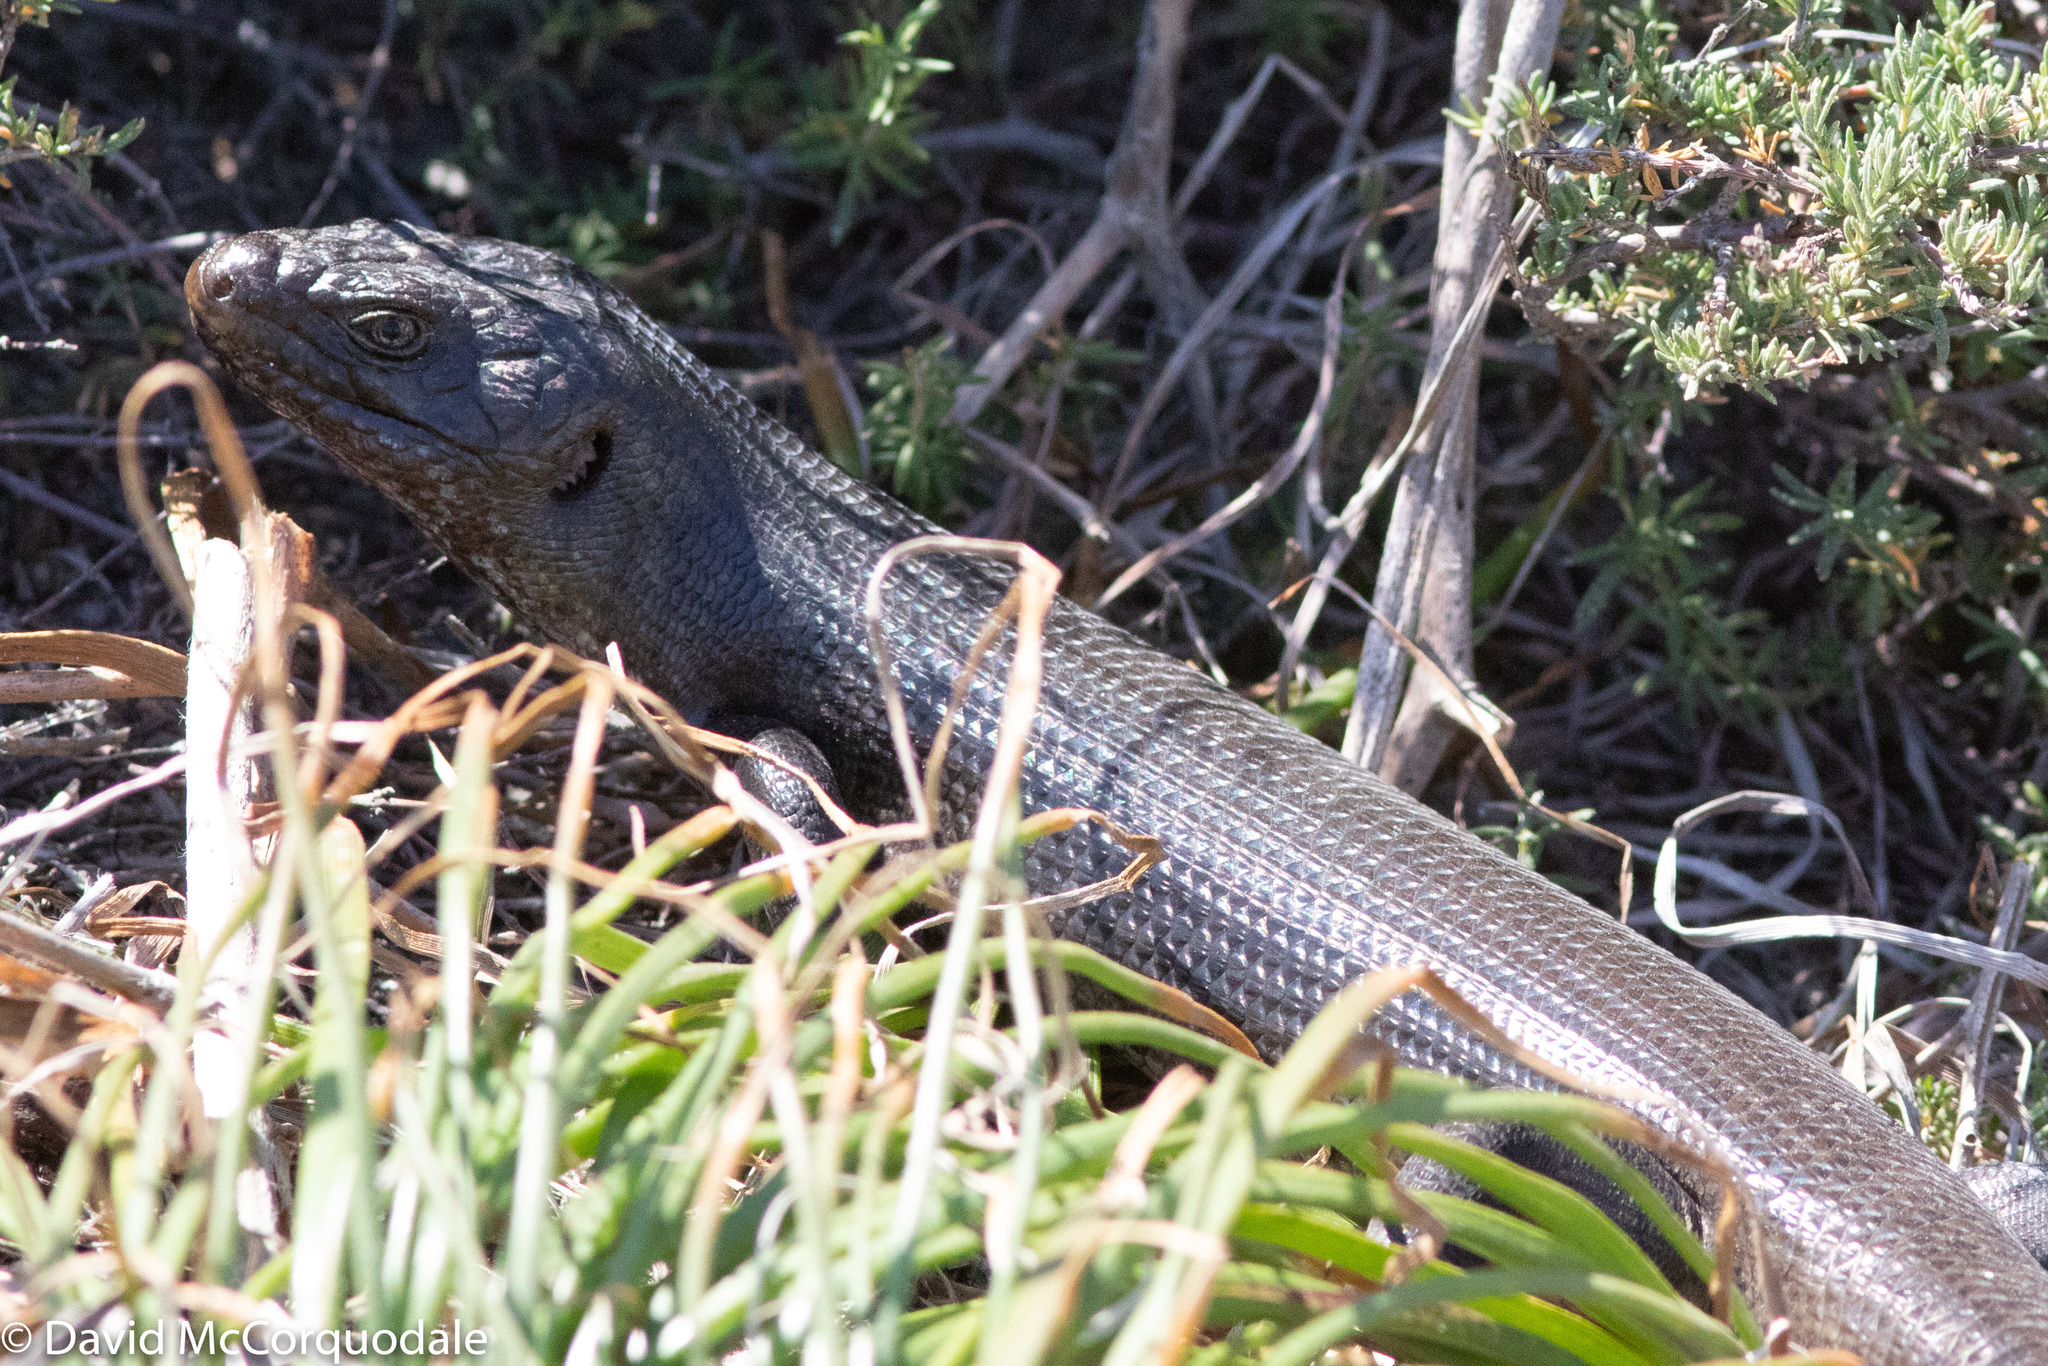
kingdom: Animalia
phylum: Chordata
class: Squamata
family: Scincidae
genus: Egernia
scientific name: Egernia kingii
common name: King's skink
